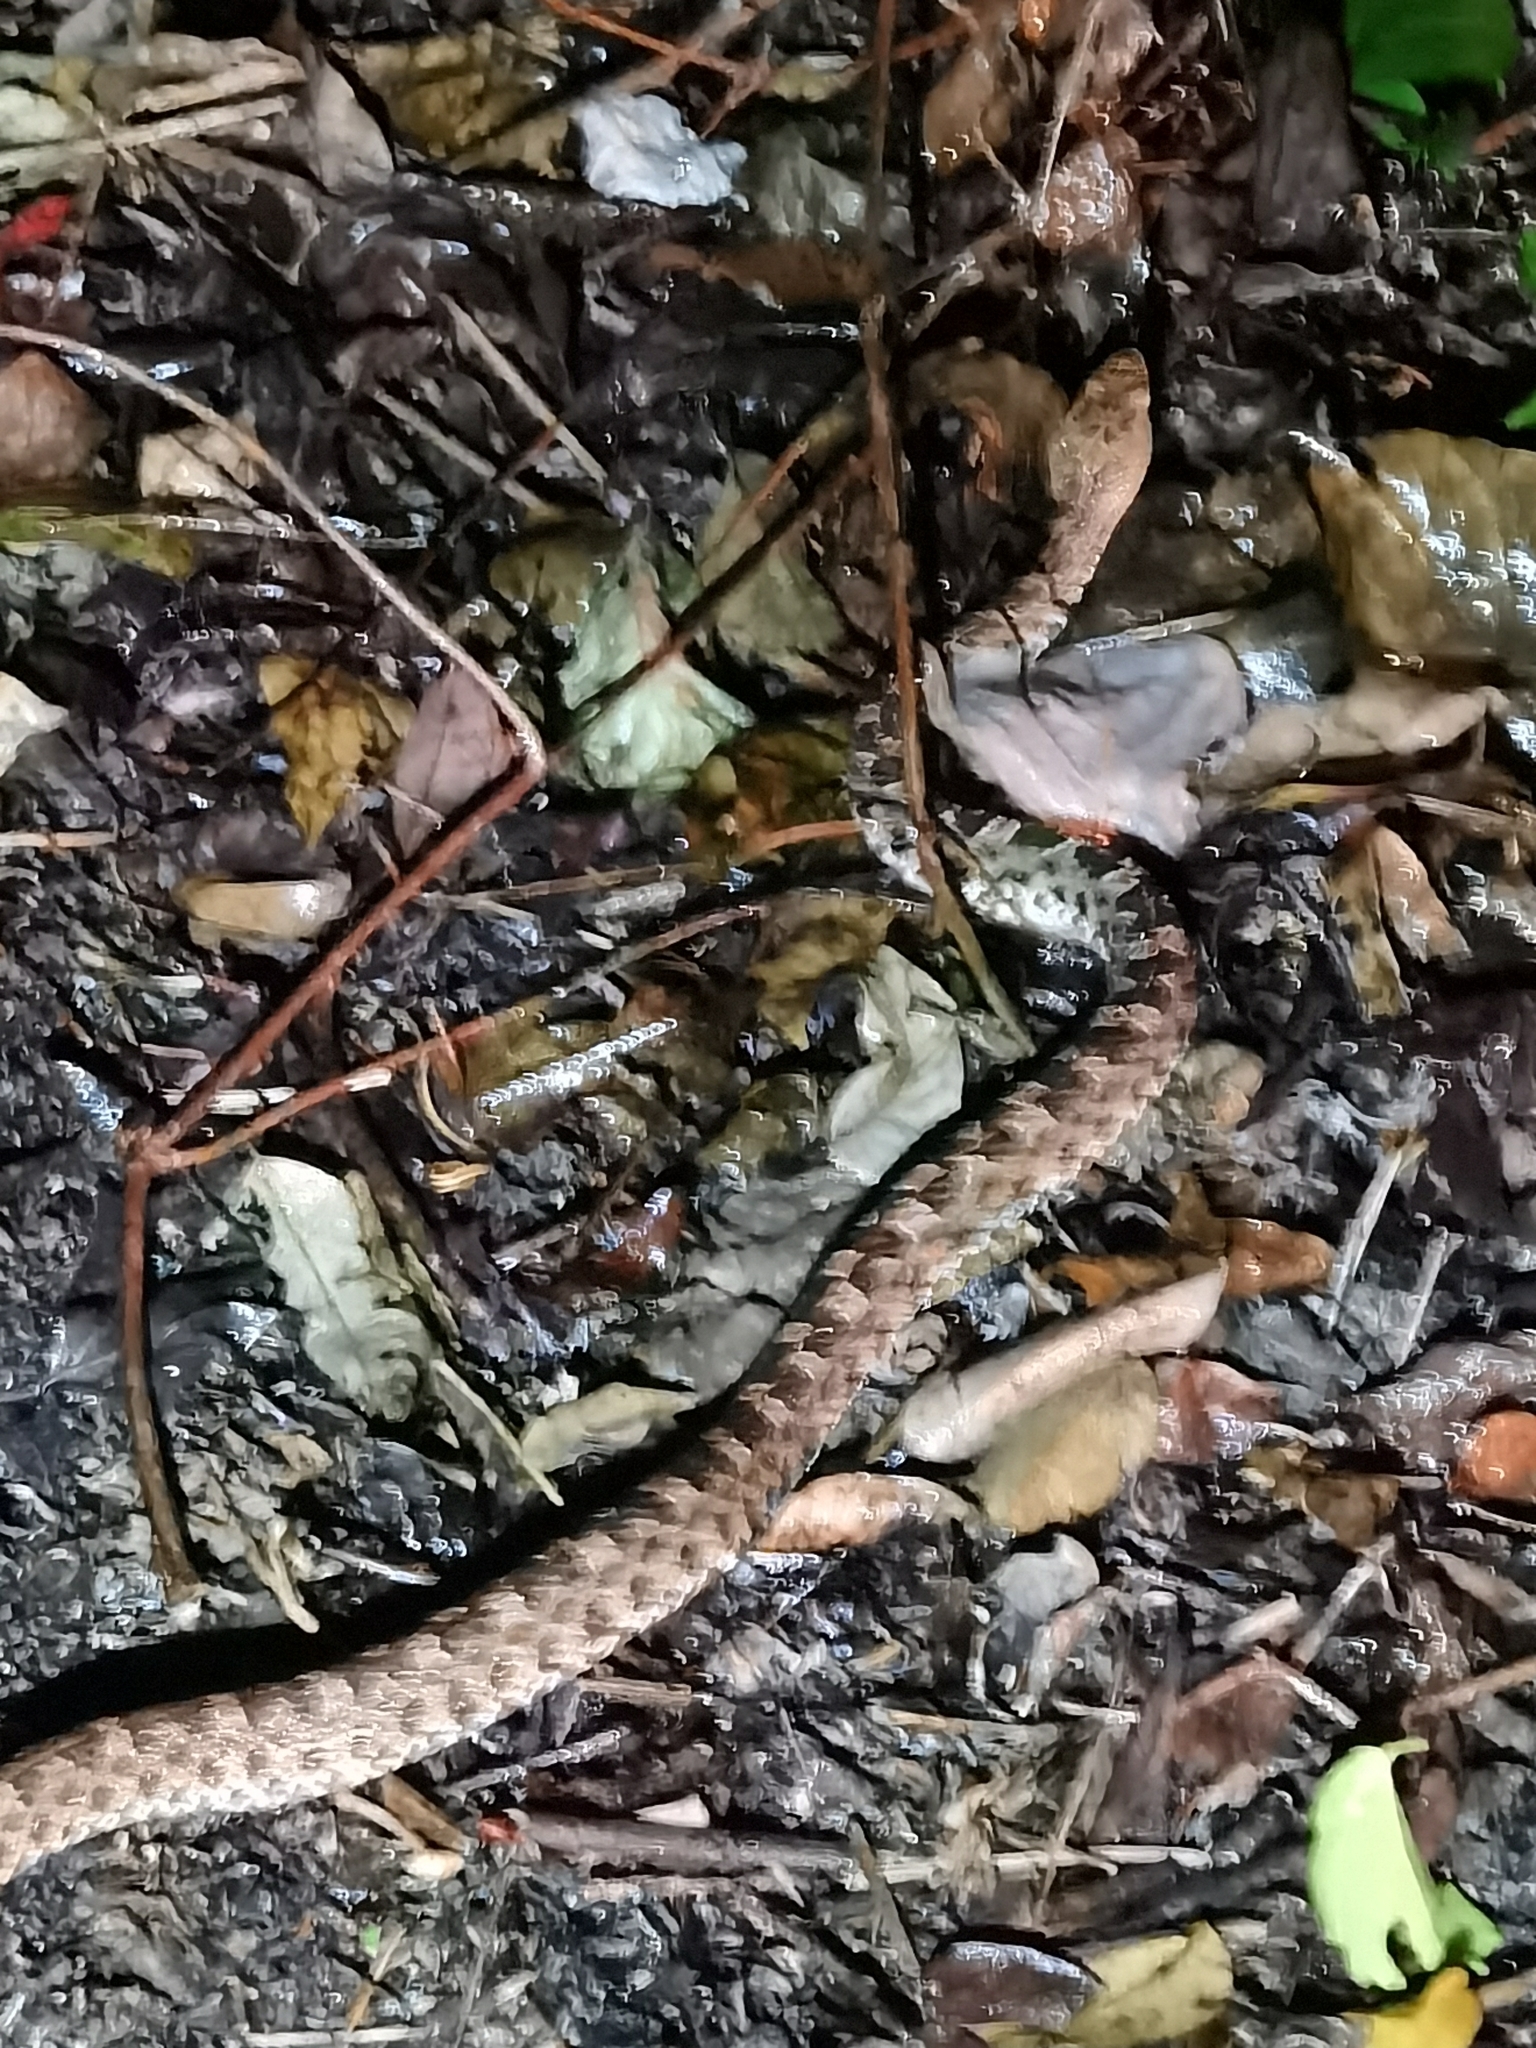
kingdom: Animalia
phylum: Chordata
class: Squamata
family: Viperidae
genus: Porthidium
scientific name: Porthidium ophryomegas
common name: Slender hognose viper
